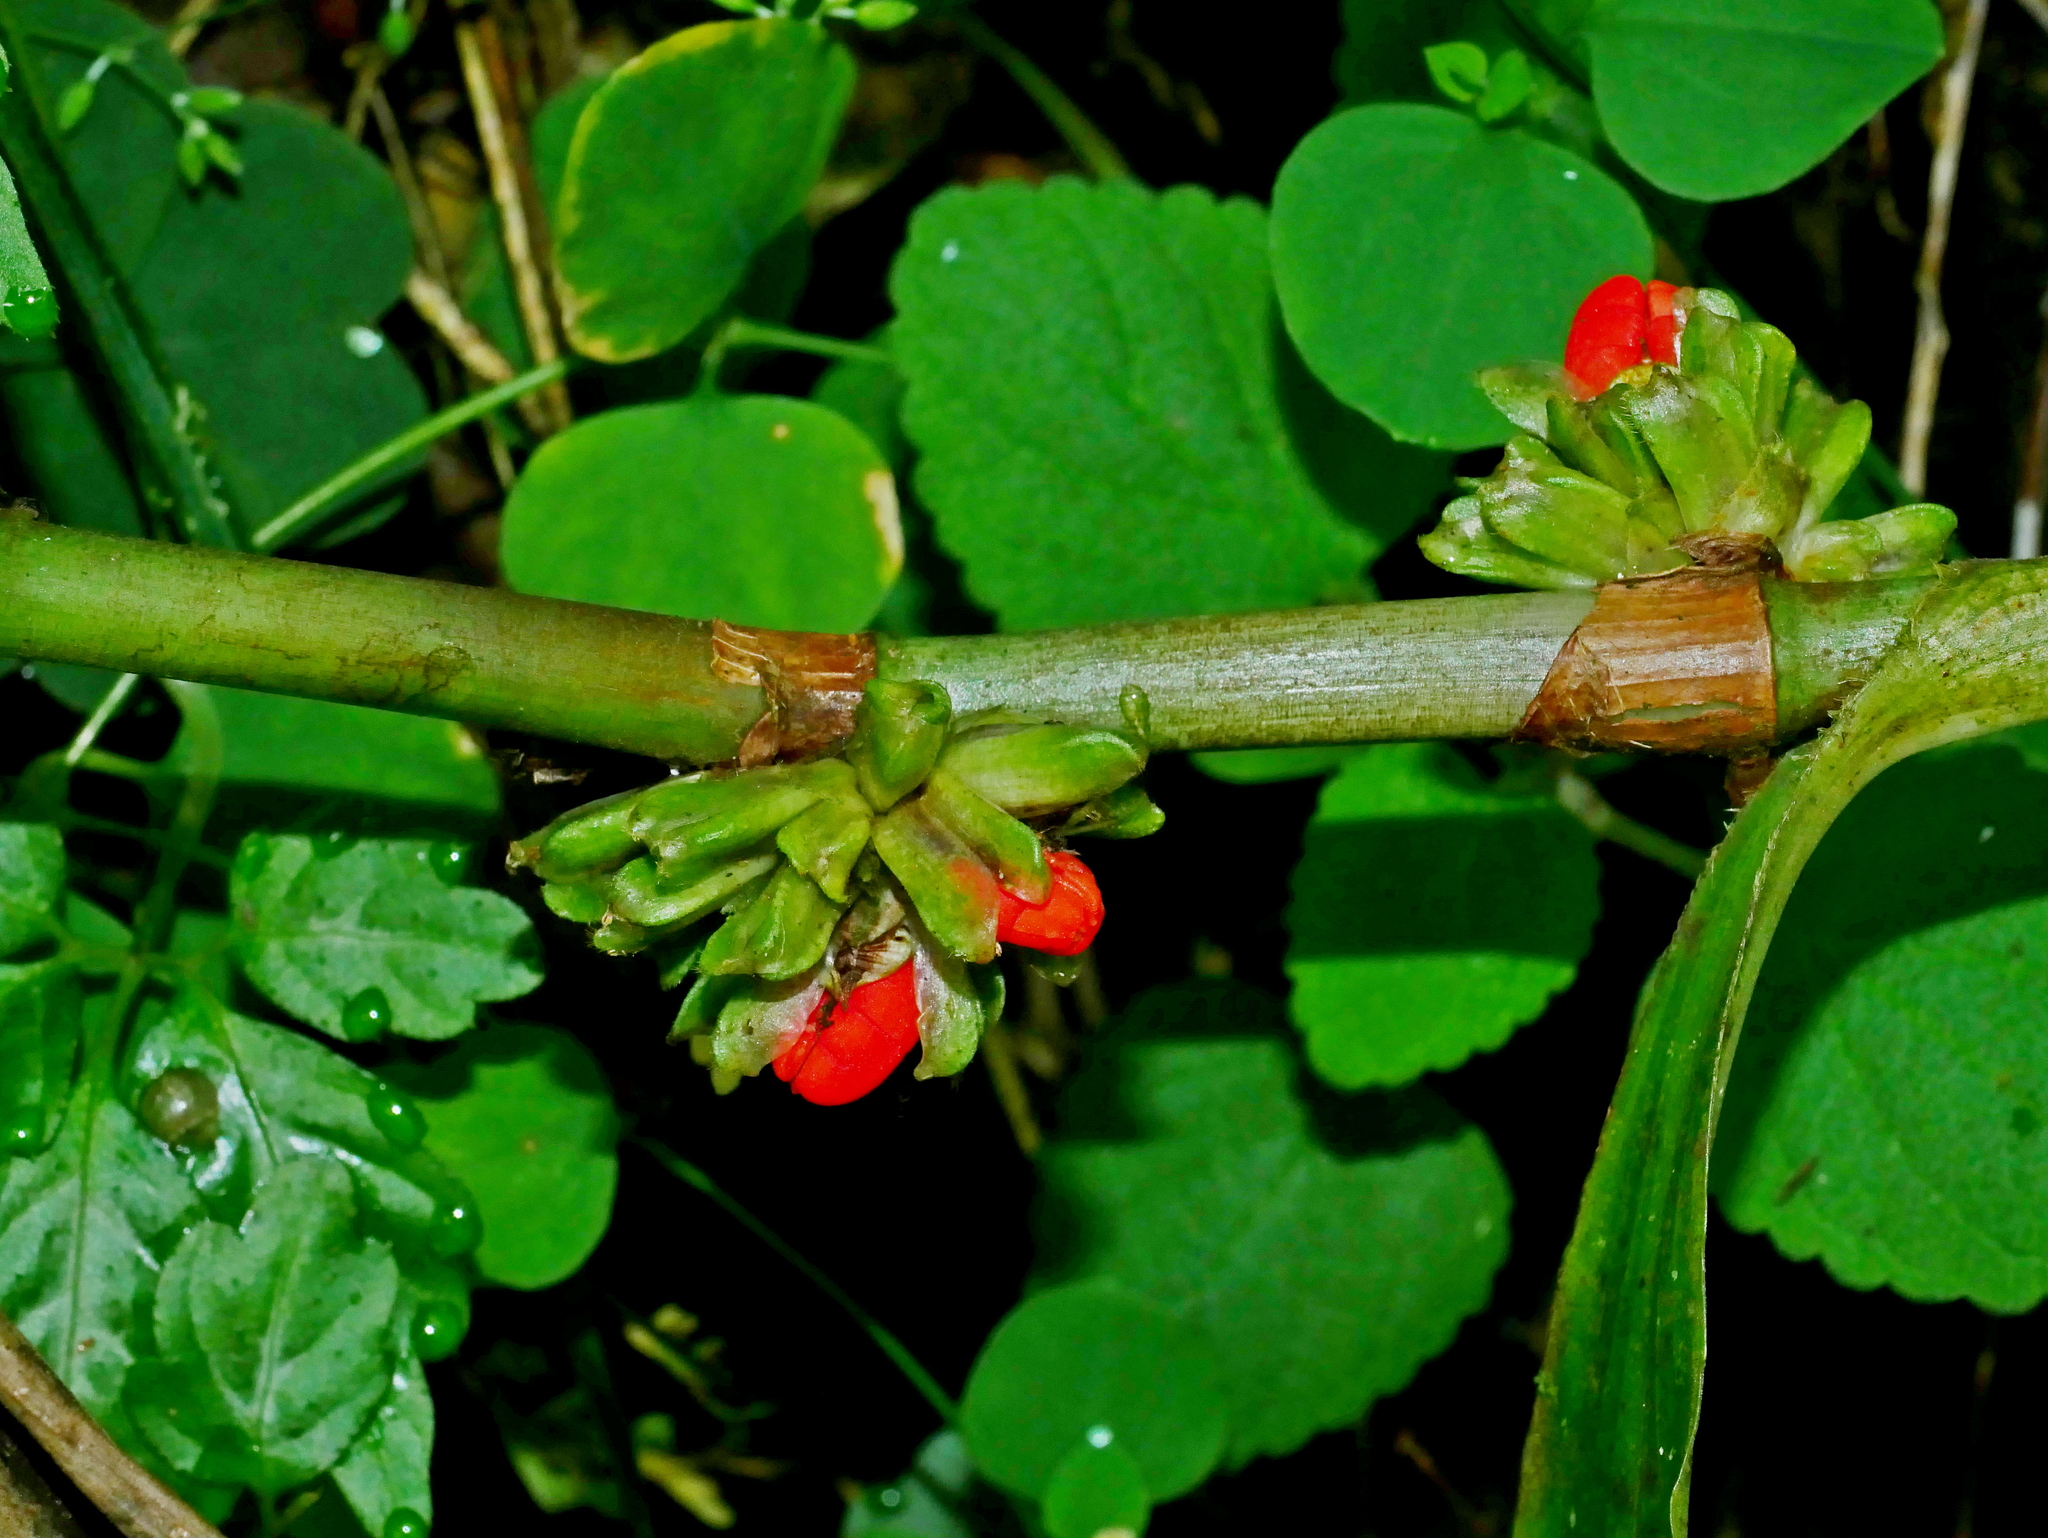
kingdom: Plantae
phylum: Tracheophyta
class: Liliopsida
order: Commelinales
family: Commelinaceae
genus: Amischotolype
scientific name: Amischotolype glabrata
